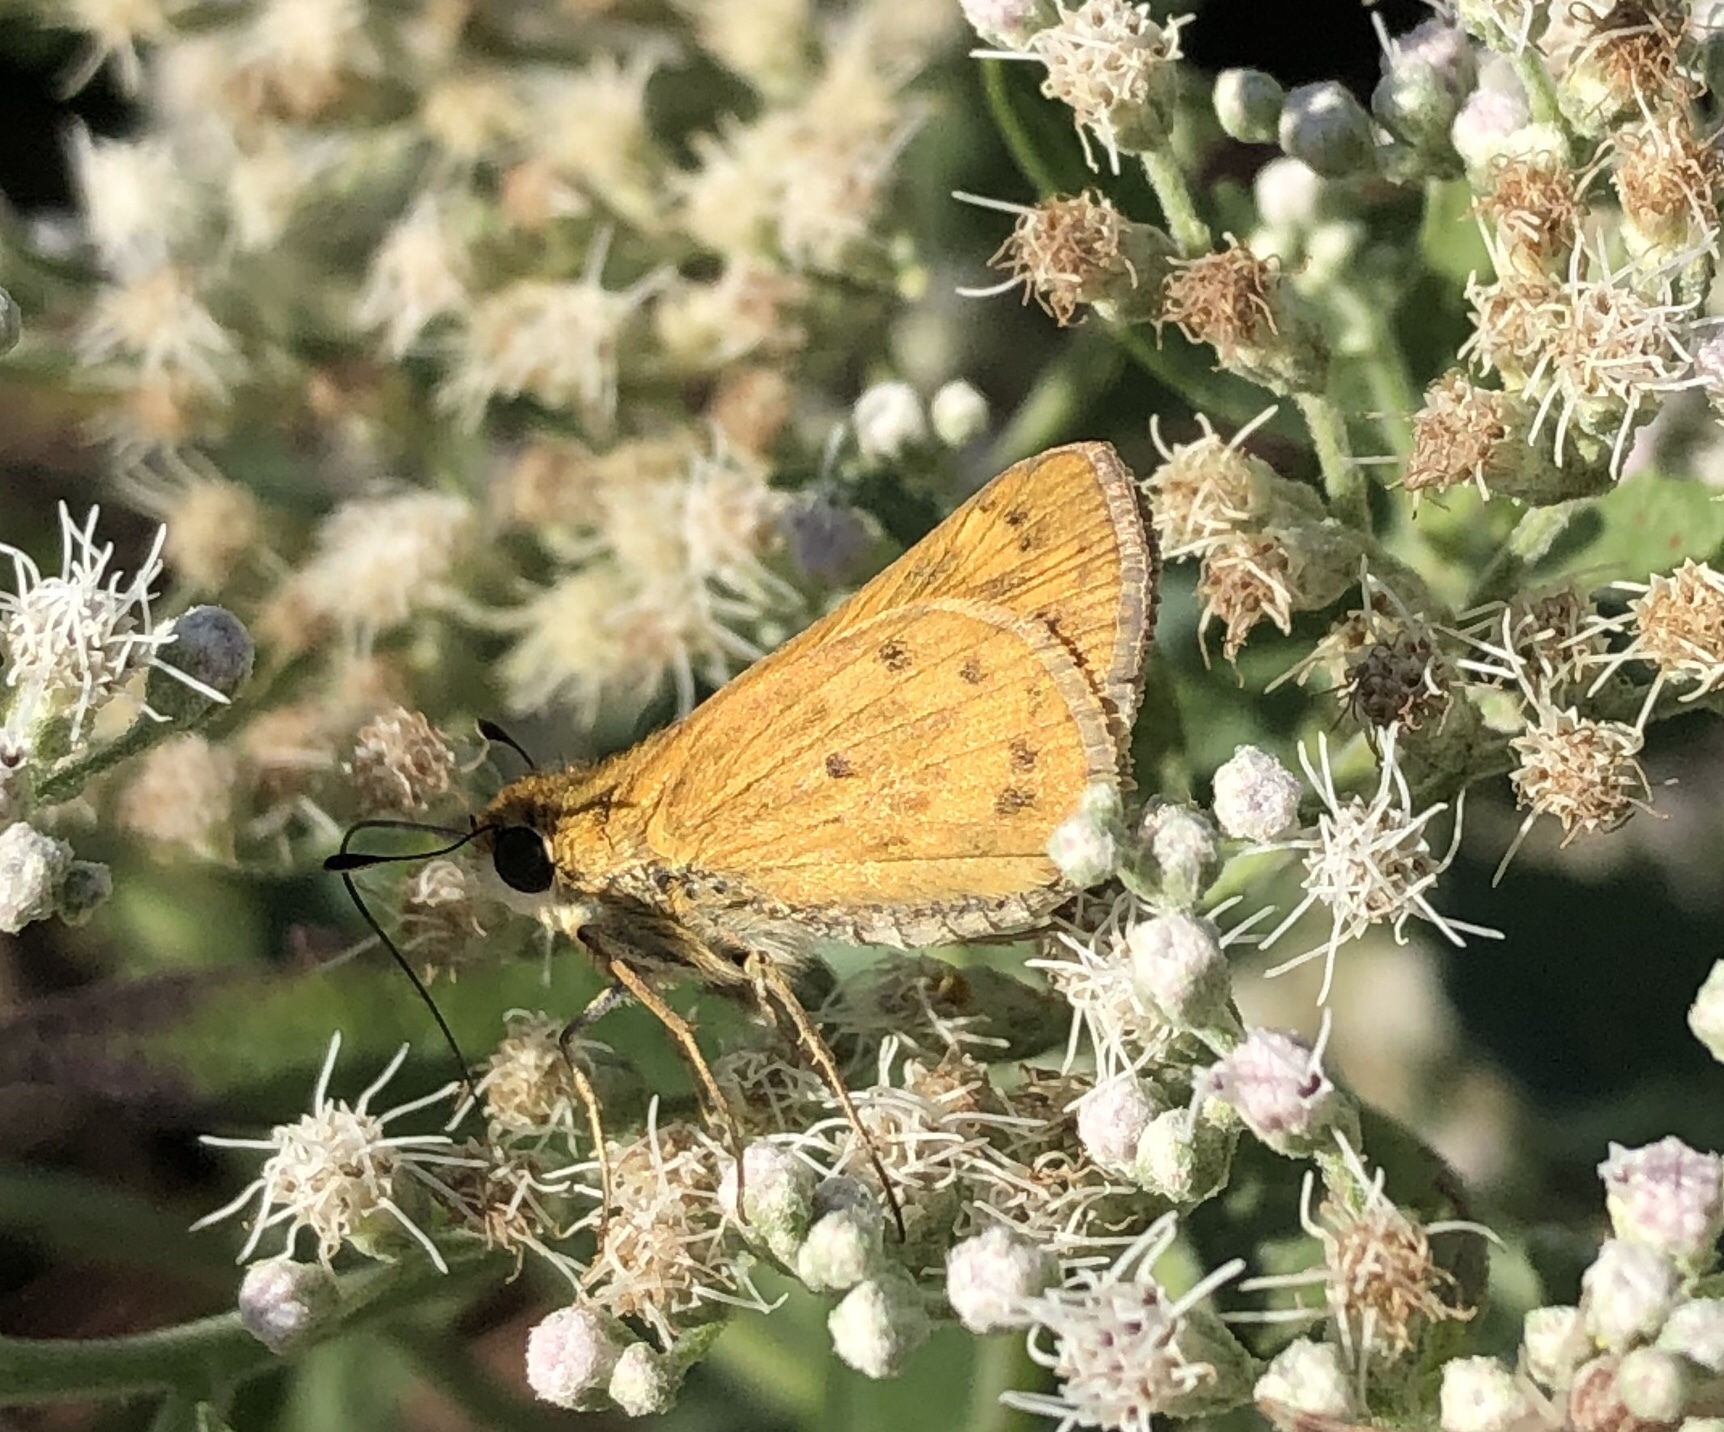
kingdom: Animalia
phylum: Arthropoda
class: Insecta
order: Lepidoptera
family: Hesperiidae
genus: Hylephila
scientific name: Hylephila phyleus
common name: Fiery skipper
